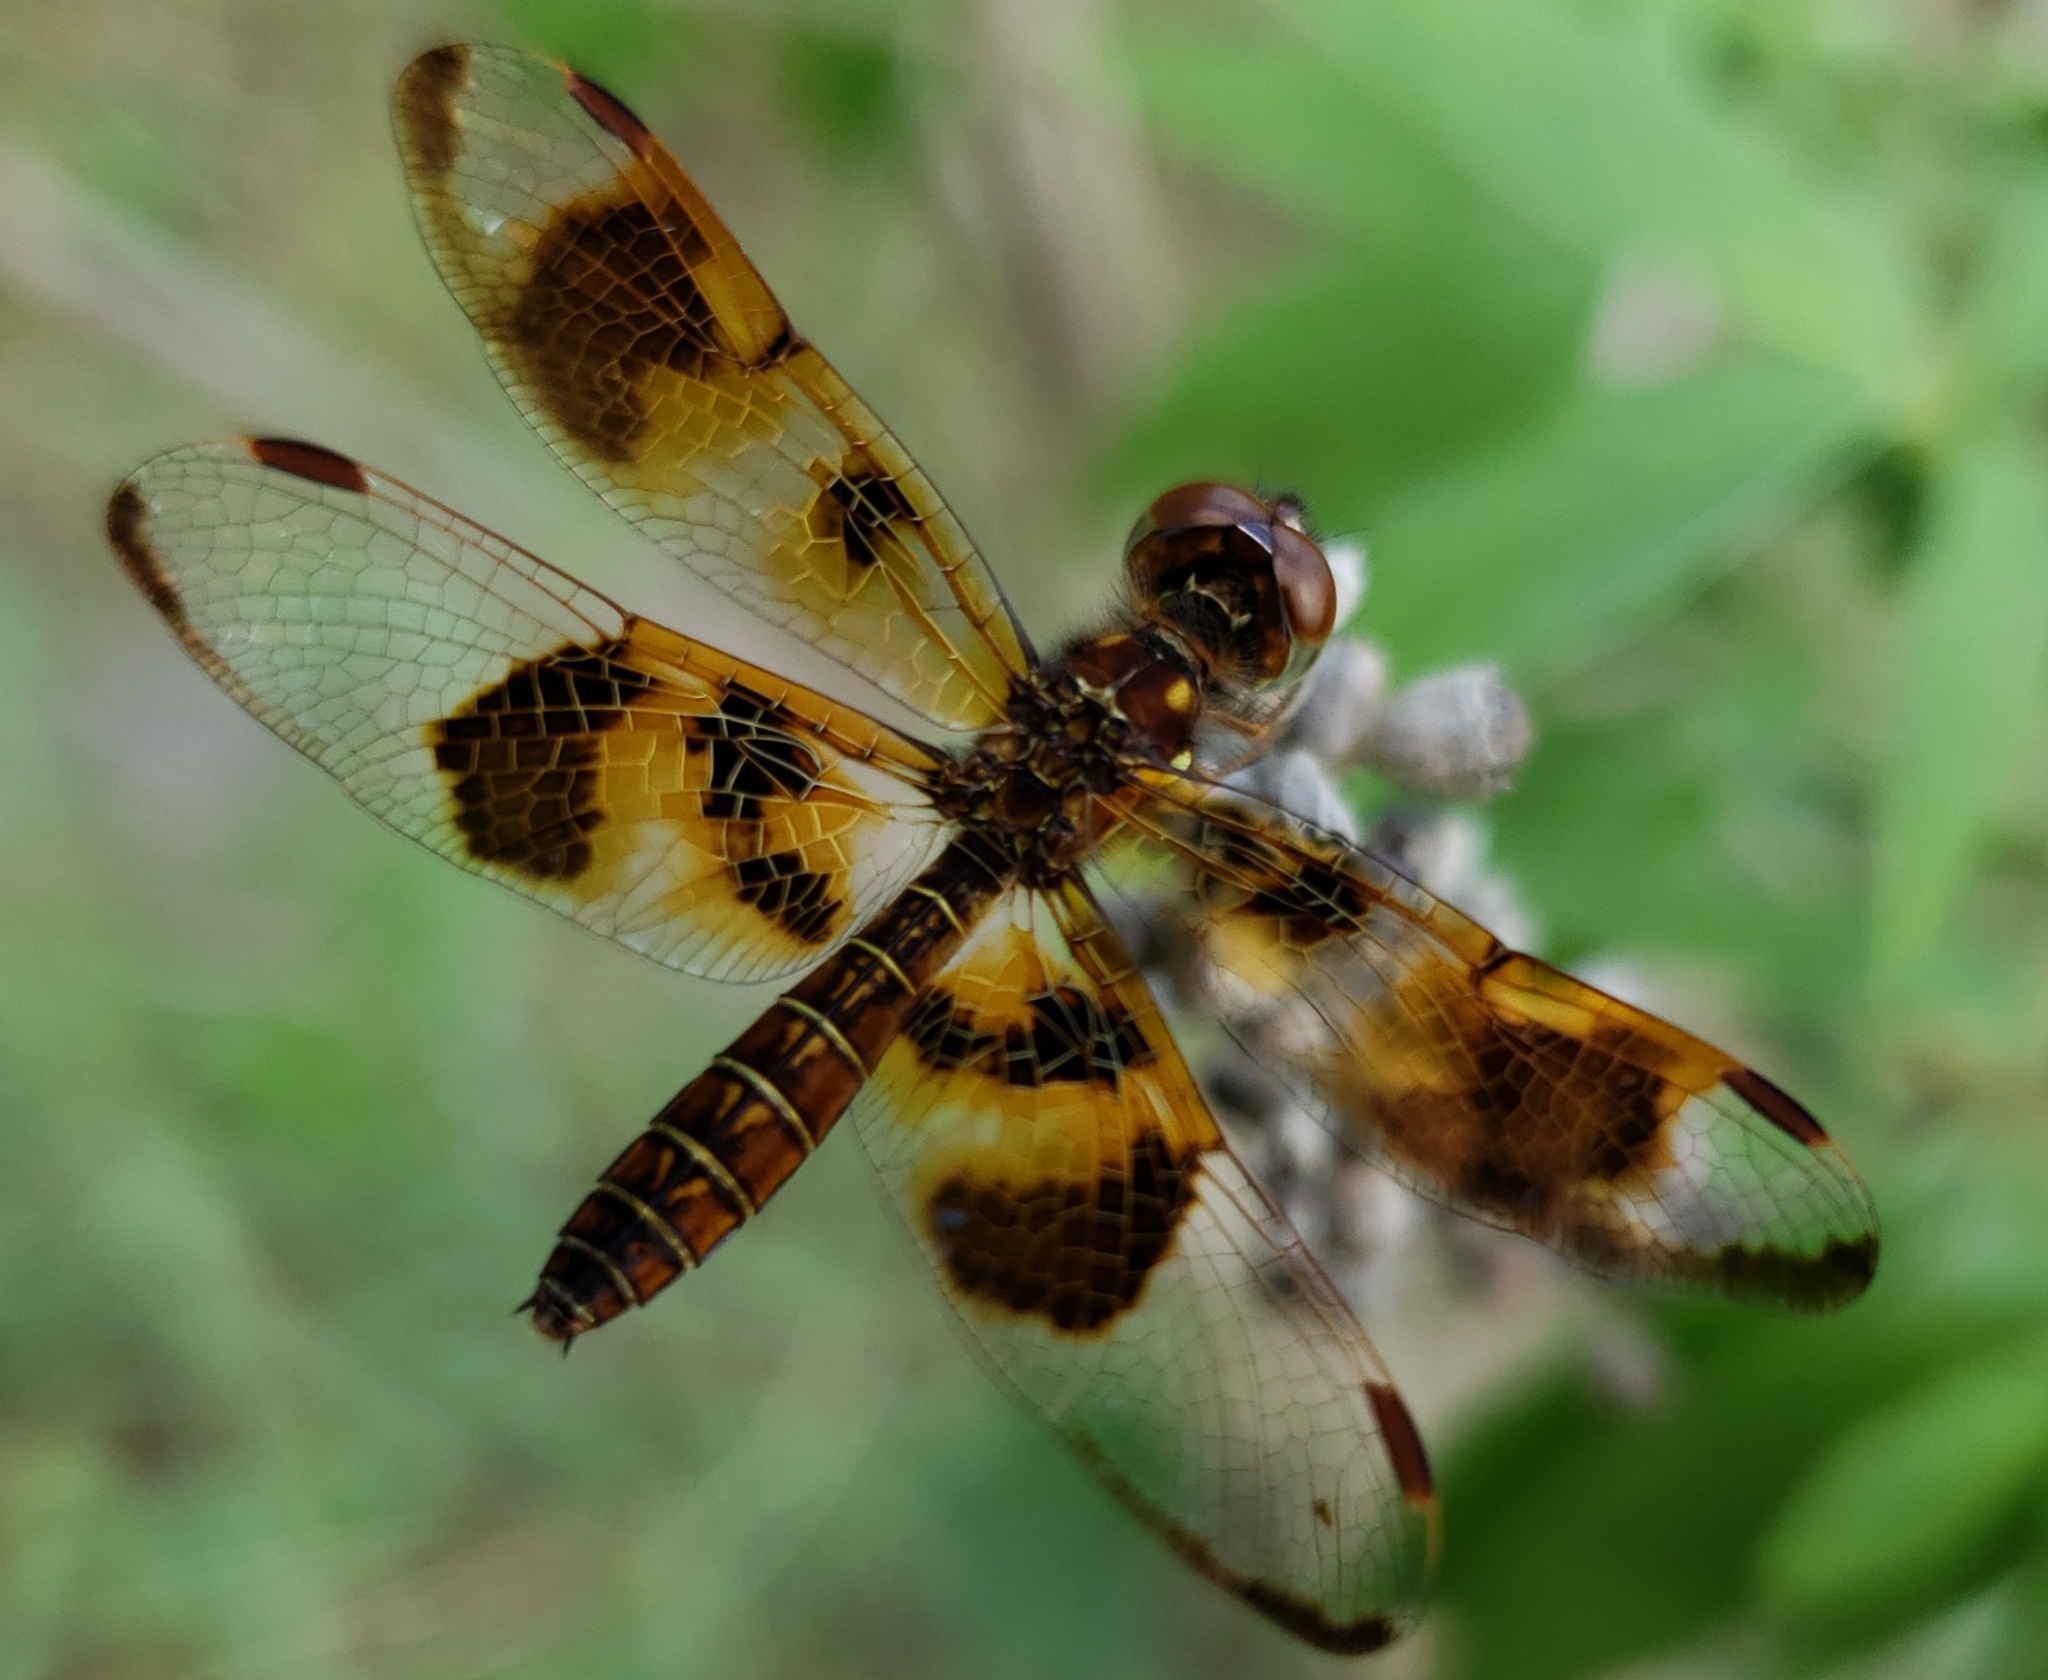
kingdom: Animalia
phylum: Arthropoda
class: Insecta
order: Odonata
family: Libellulidae
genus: Perithemis
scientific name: Perithemis tenera
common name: Eastern amberwing
